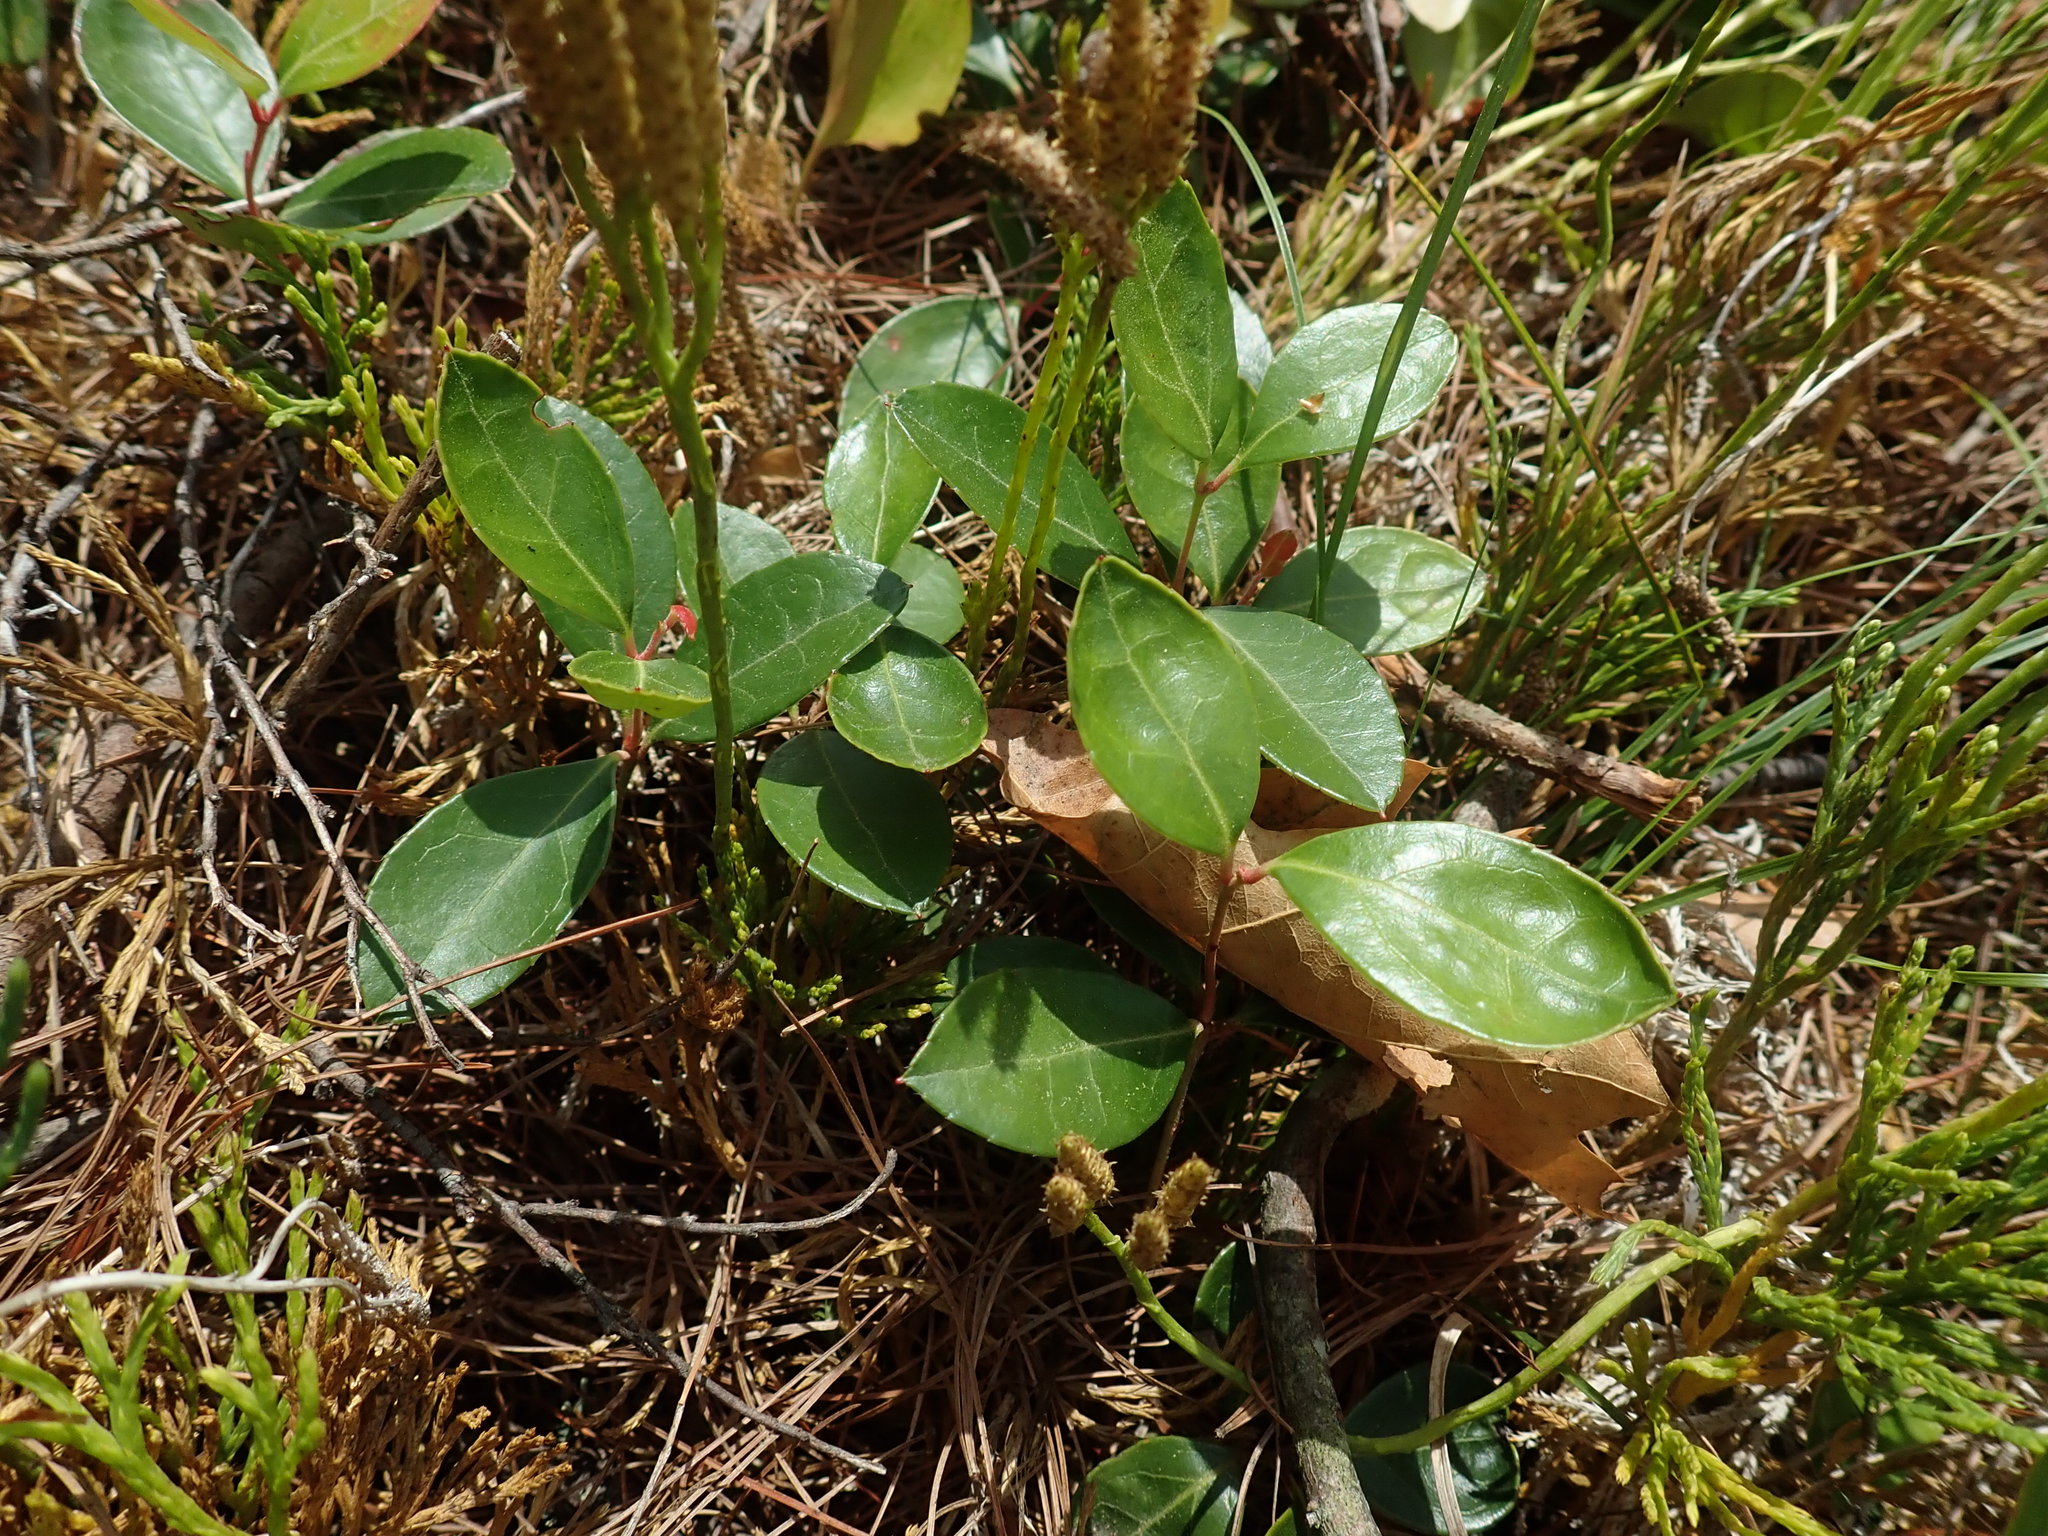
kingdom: Plantae
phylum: Tracheophyta
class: Magnoliopsida
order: Ericales
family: Ericaceae
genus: Gaultheria
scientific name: Gaultheria procumbens
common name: Checkerberry
